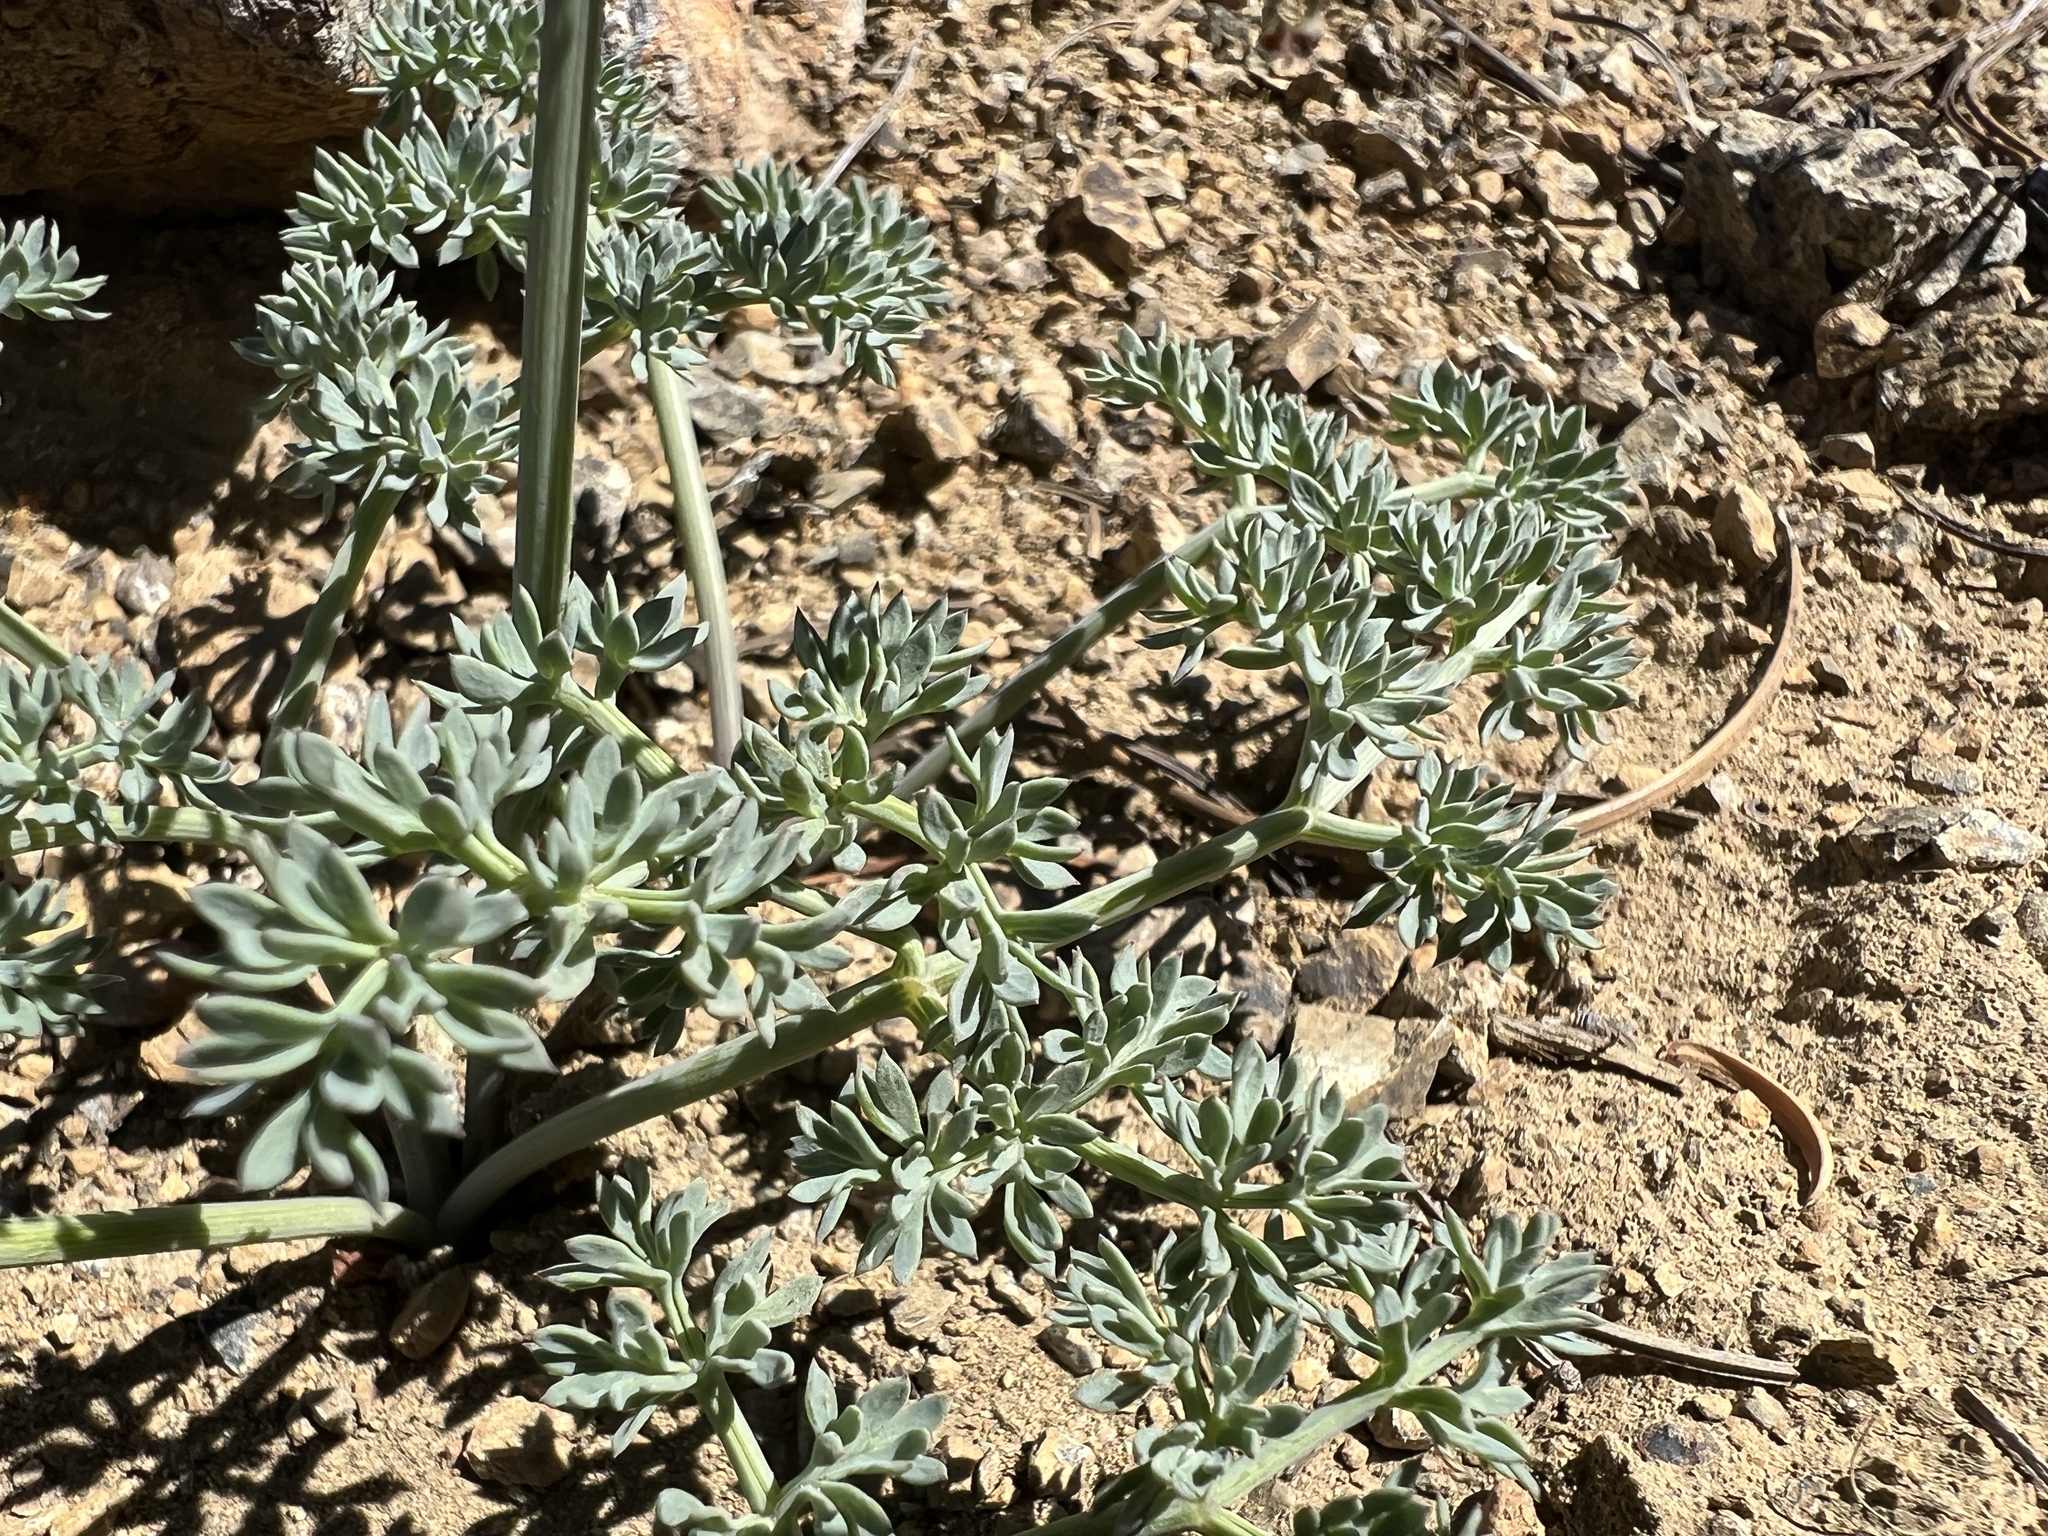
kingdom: Plantae
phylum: Tracheophyta
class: Magnoliopsida
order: Apiales
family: Apiaceae
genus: Lomatium
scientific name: Lomatium cuspidatum
